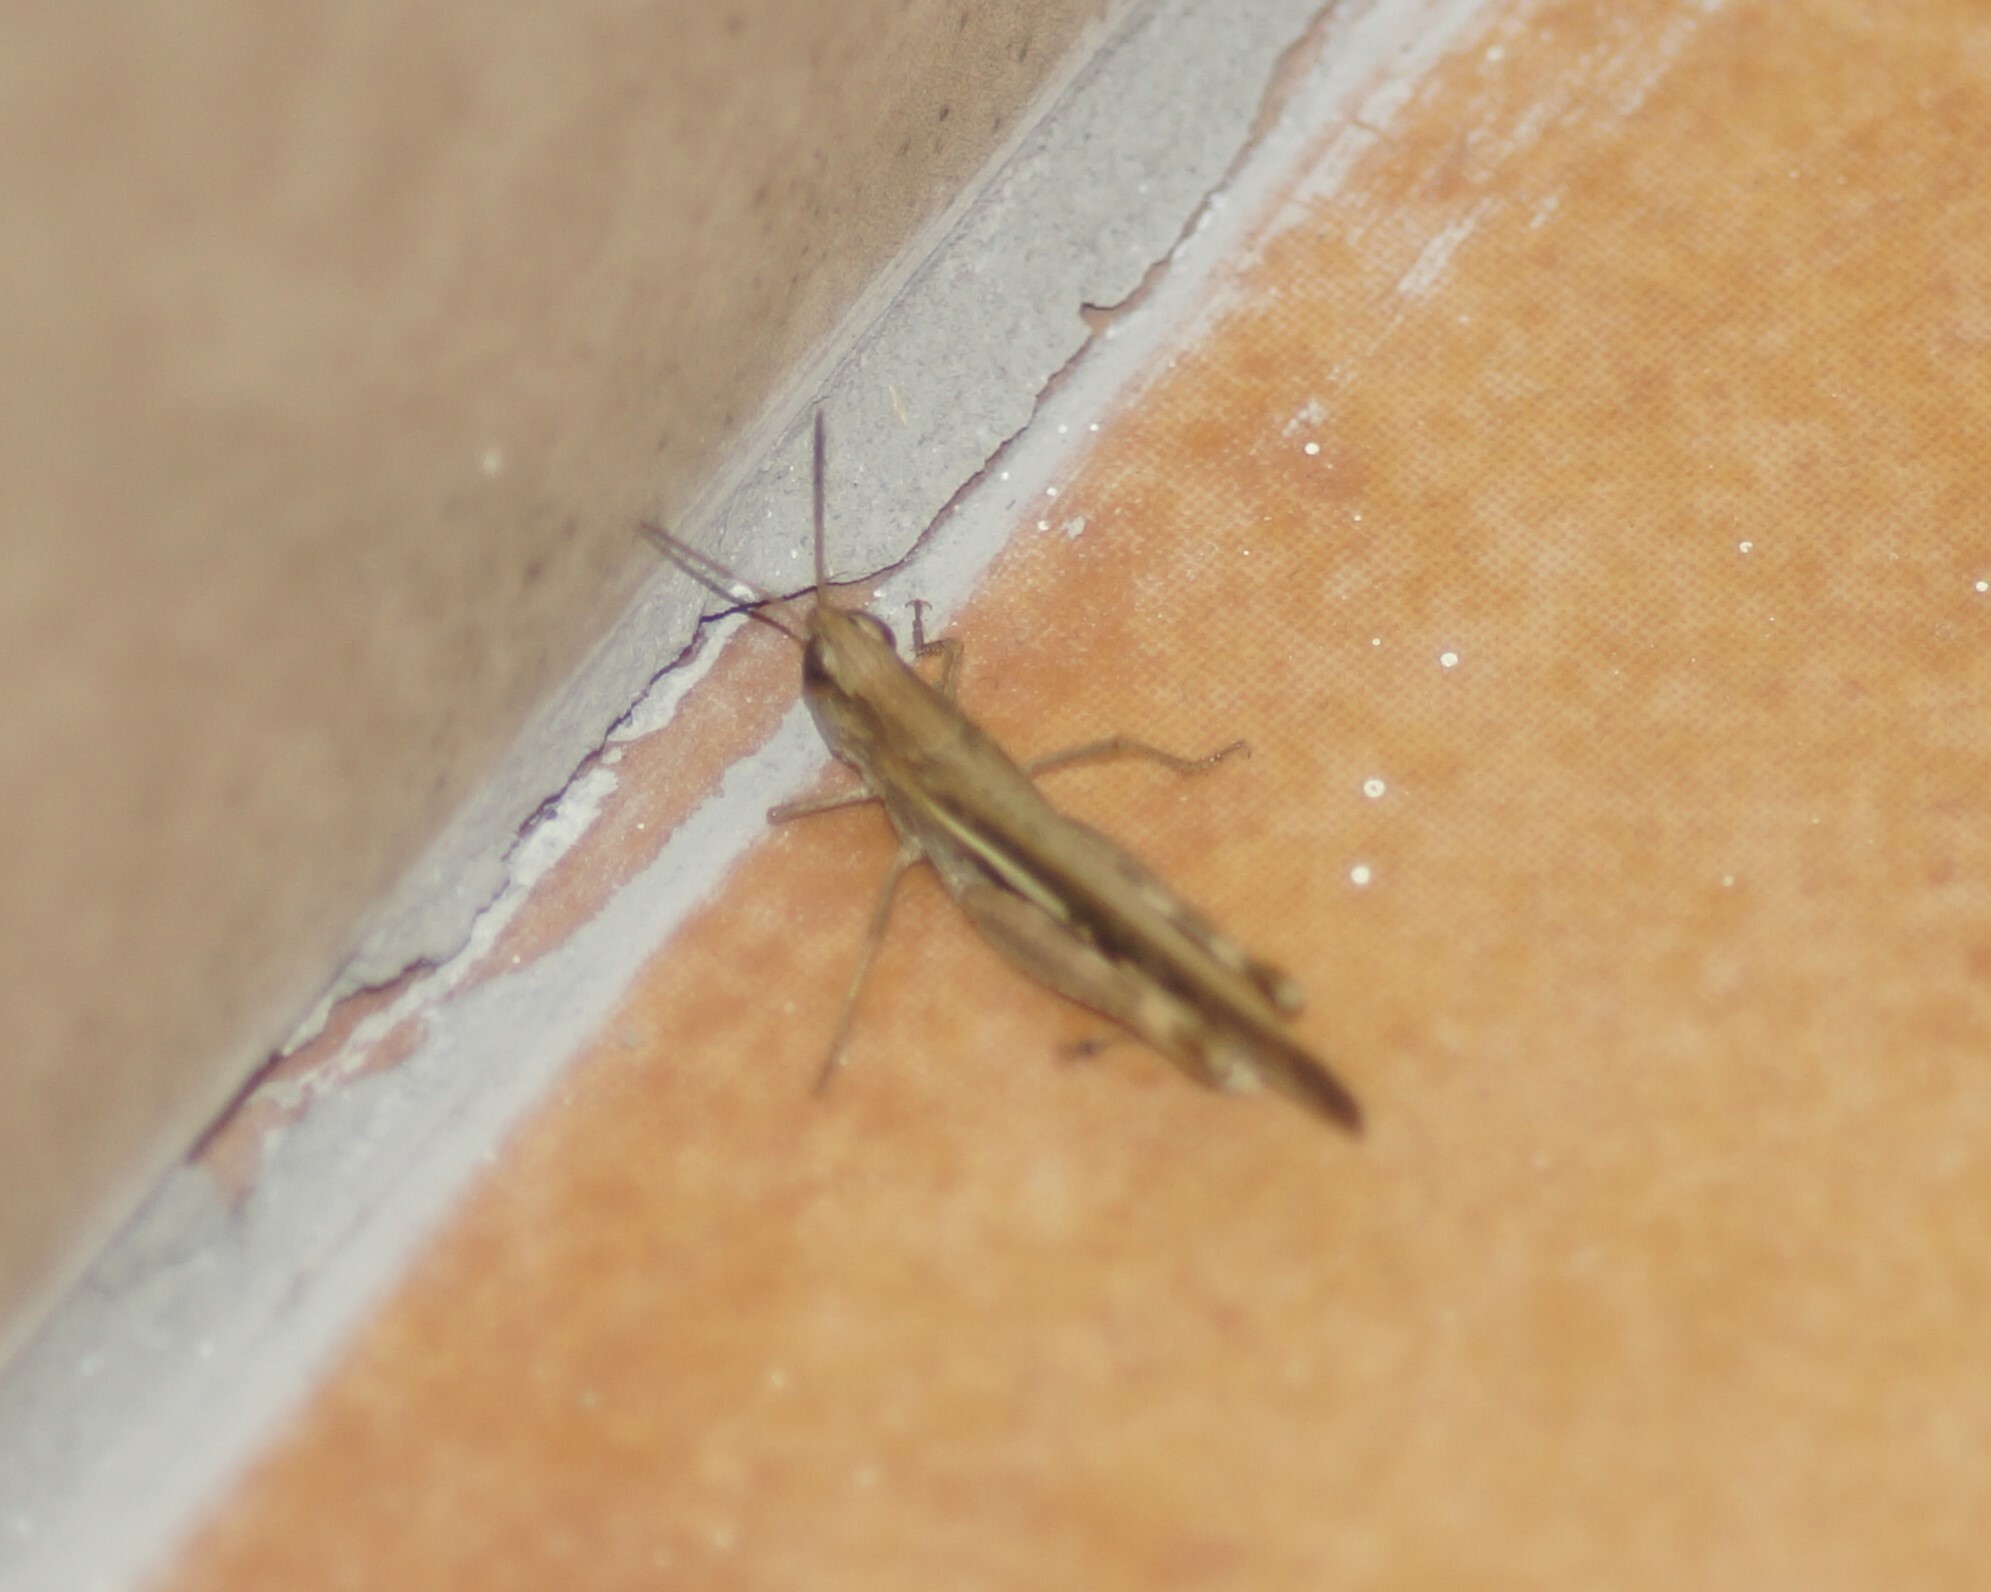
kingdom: Animalia
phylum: Arthropoda
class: Insecta
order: Orthoptera
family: Acrididae
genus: Aiolopus
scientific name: Aiolopus thalassinus
